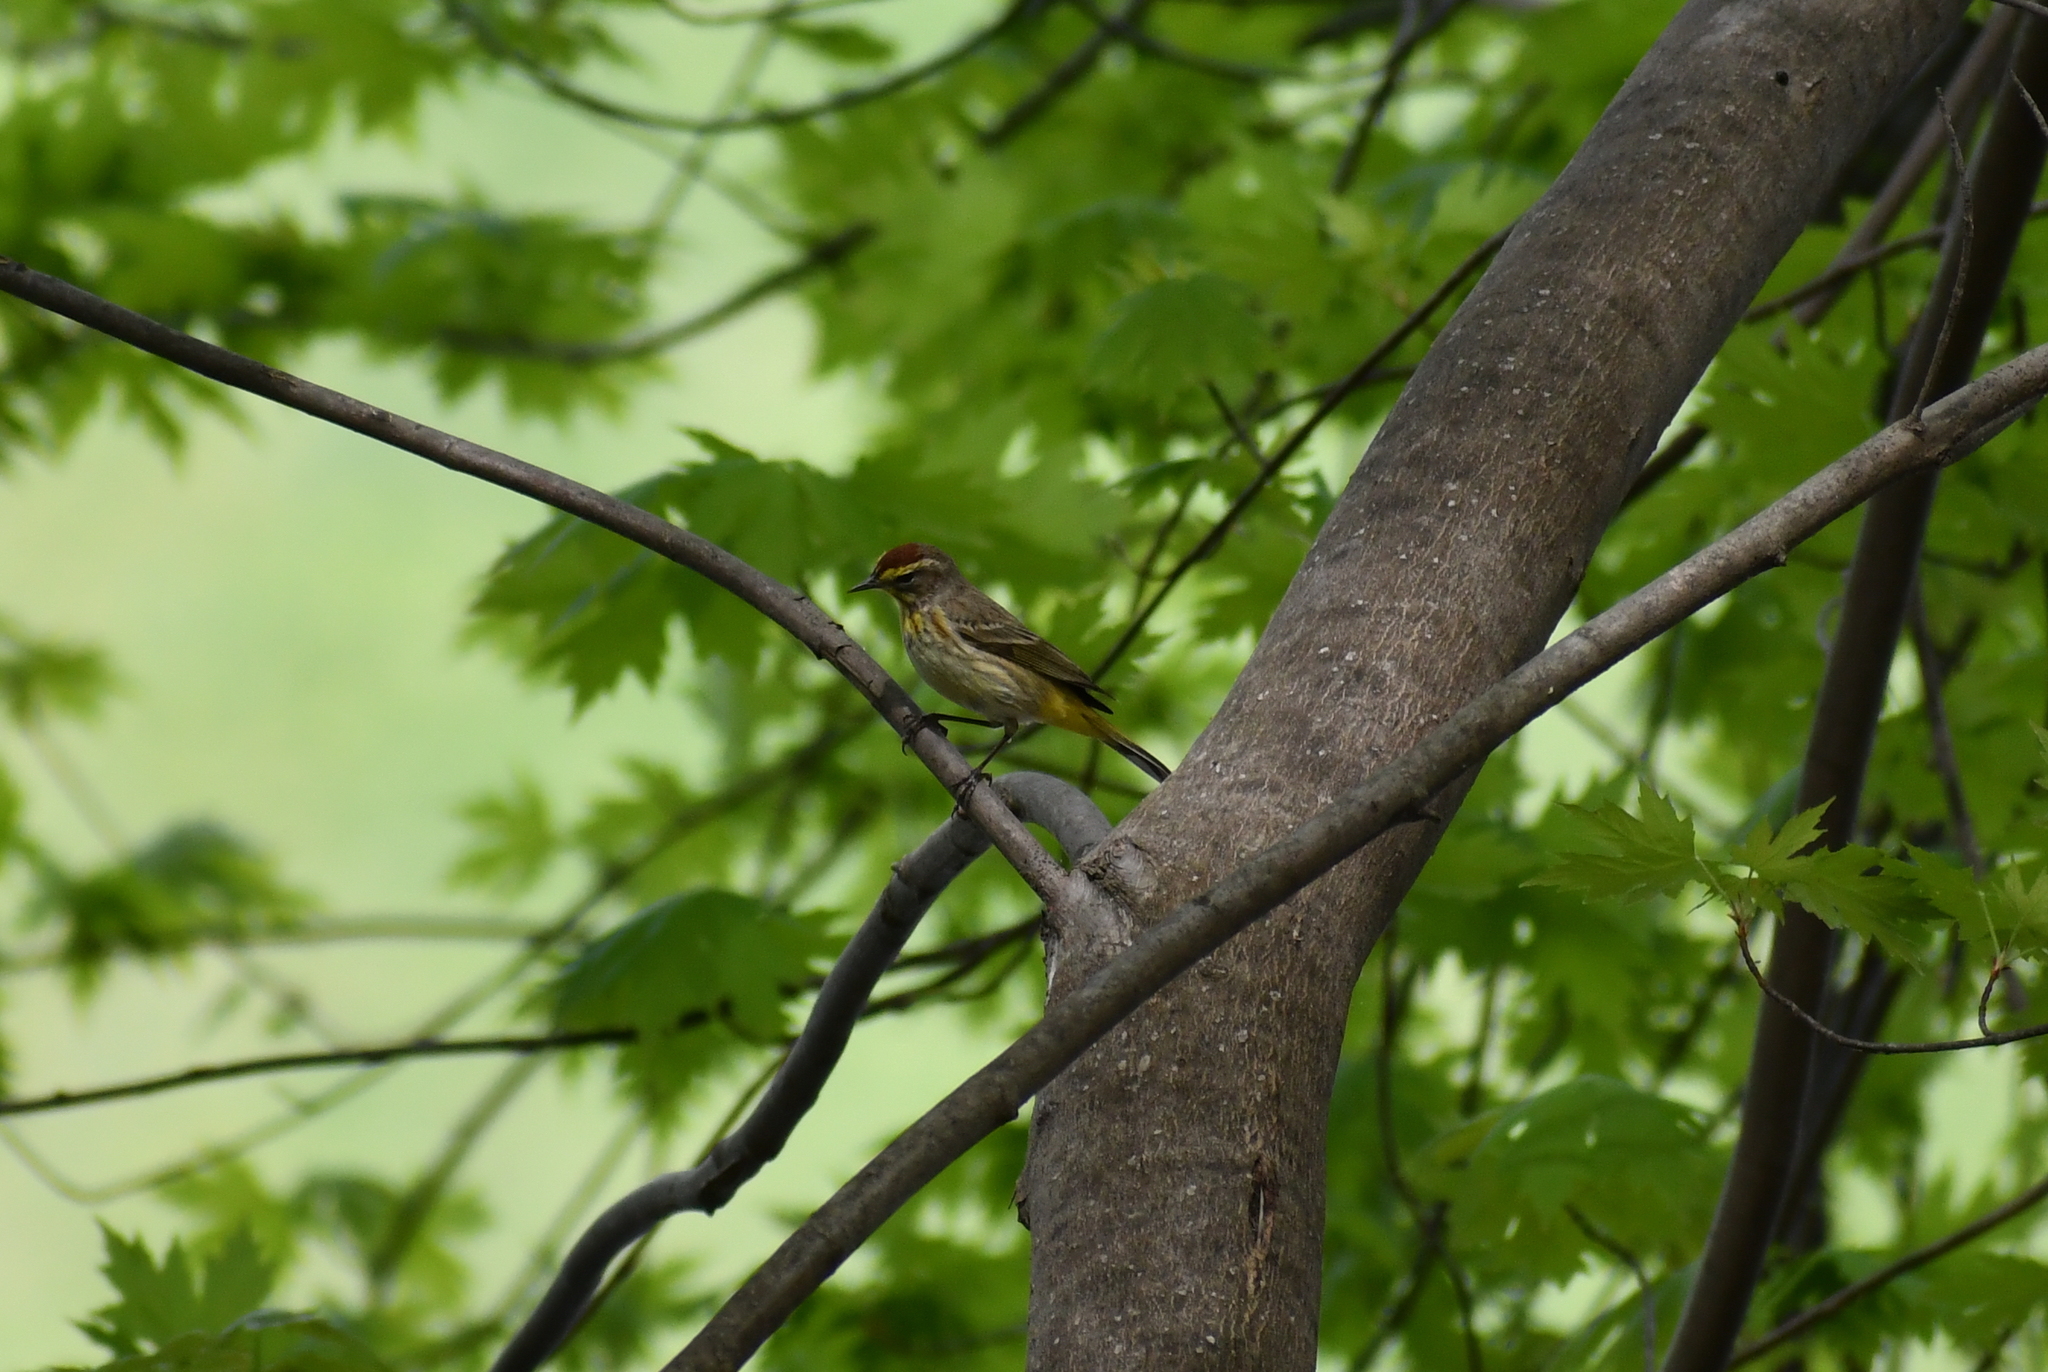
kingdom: Animalia
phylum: Chordata
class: Aves
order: Passeriformes
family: Parulidae
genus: Setophaga
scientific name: Setophaga palmarum
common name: Palm warbler
